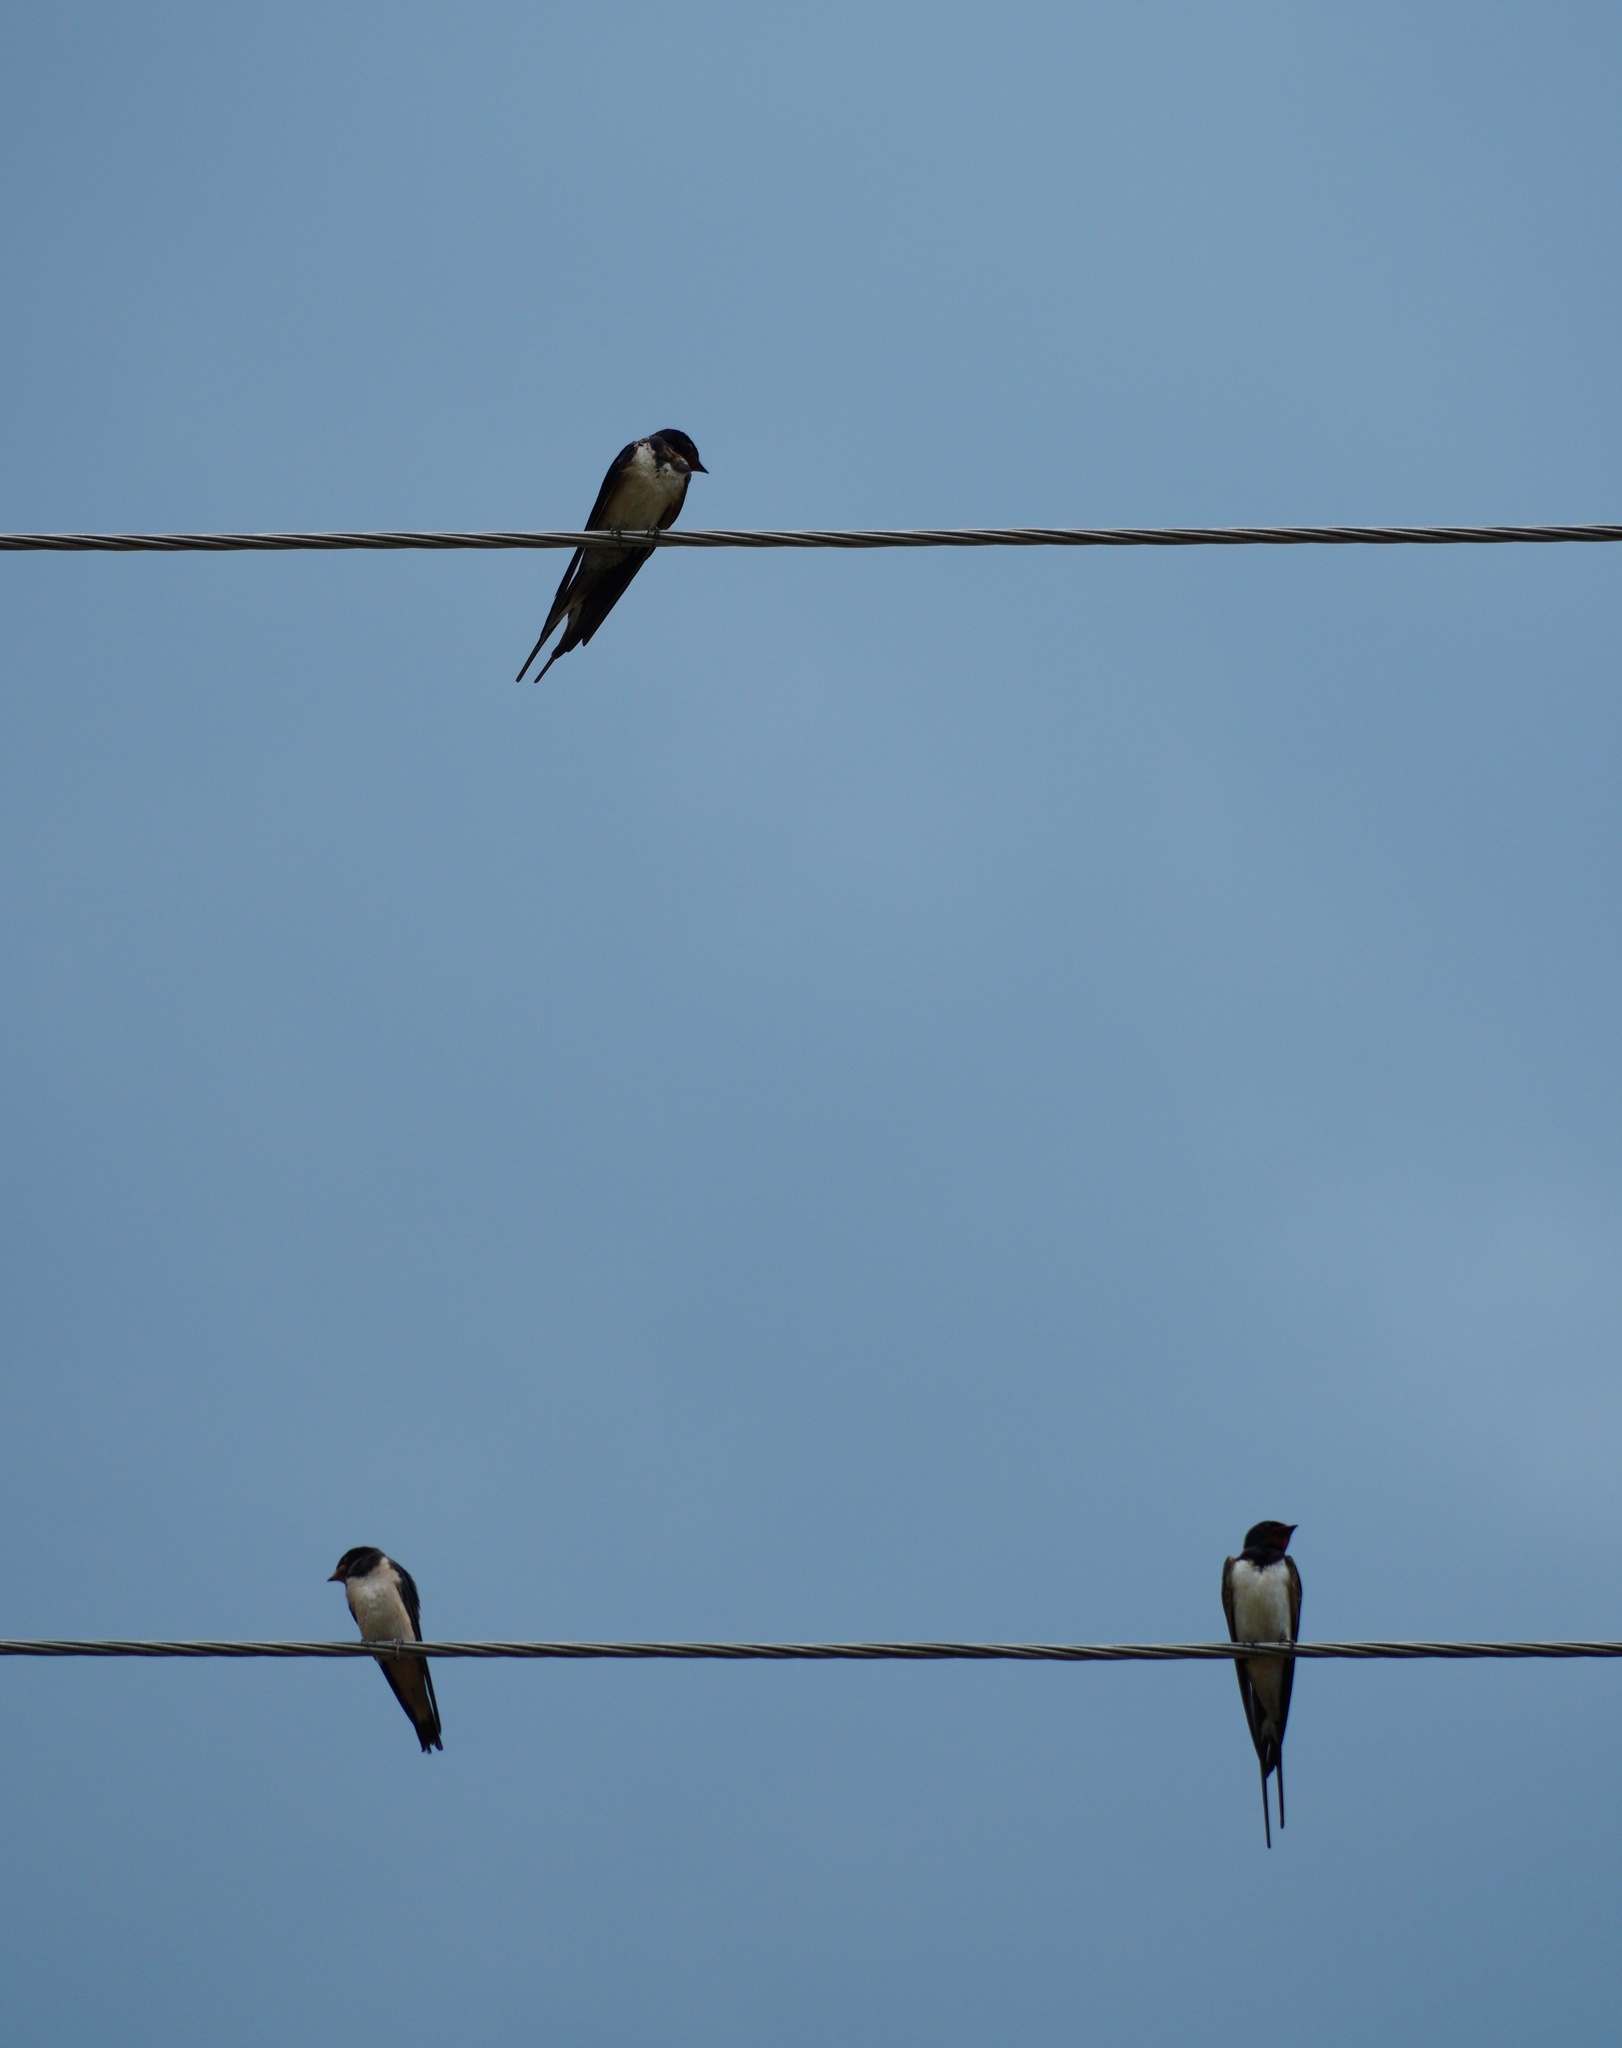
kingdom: Animalia
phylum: Chordata
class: Aves
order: Passeriformes
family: Hirundinidae
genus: Hirundo
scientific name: Hirundo rustica
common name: Barn swallow
